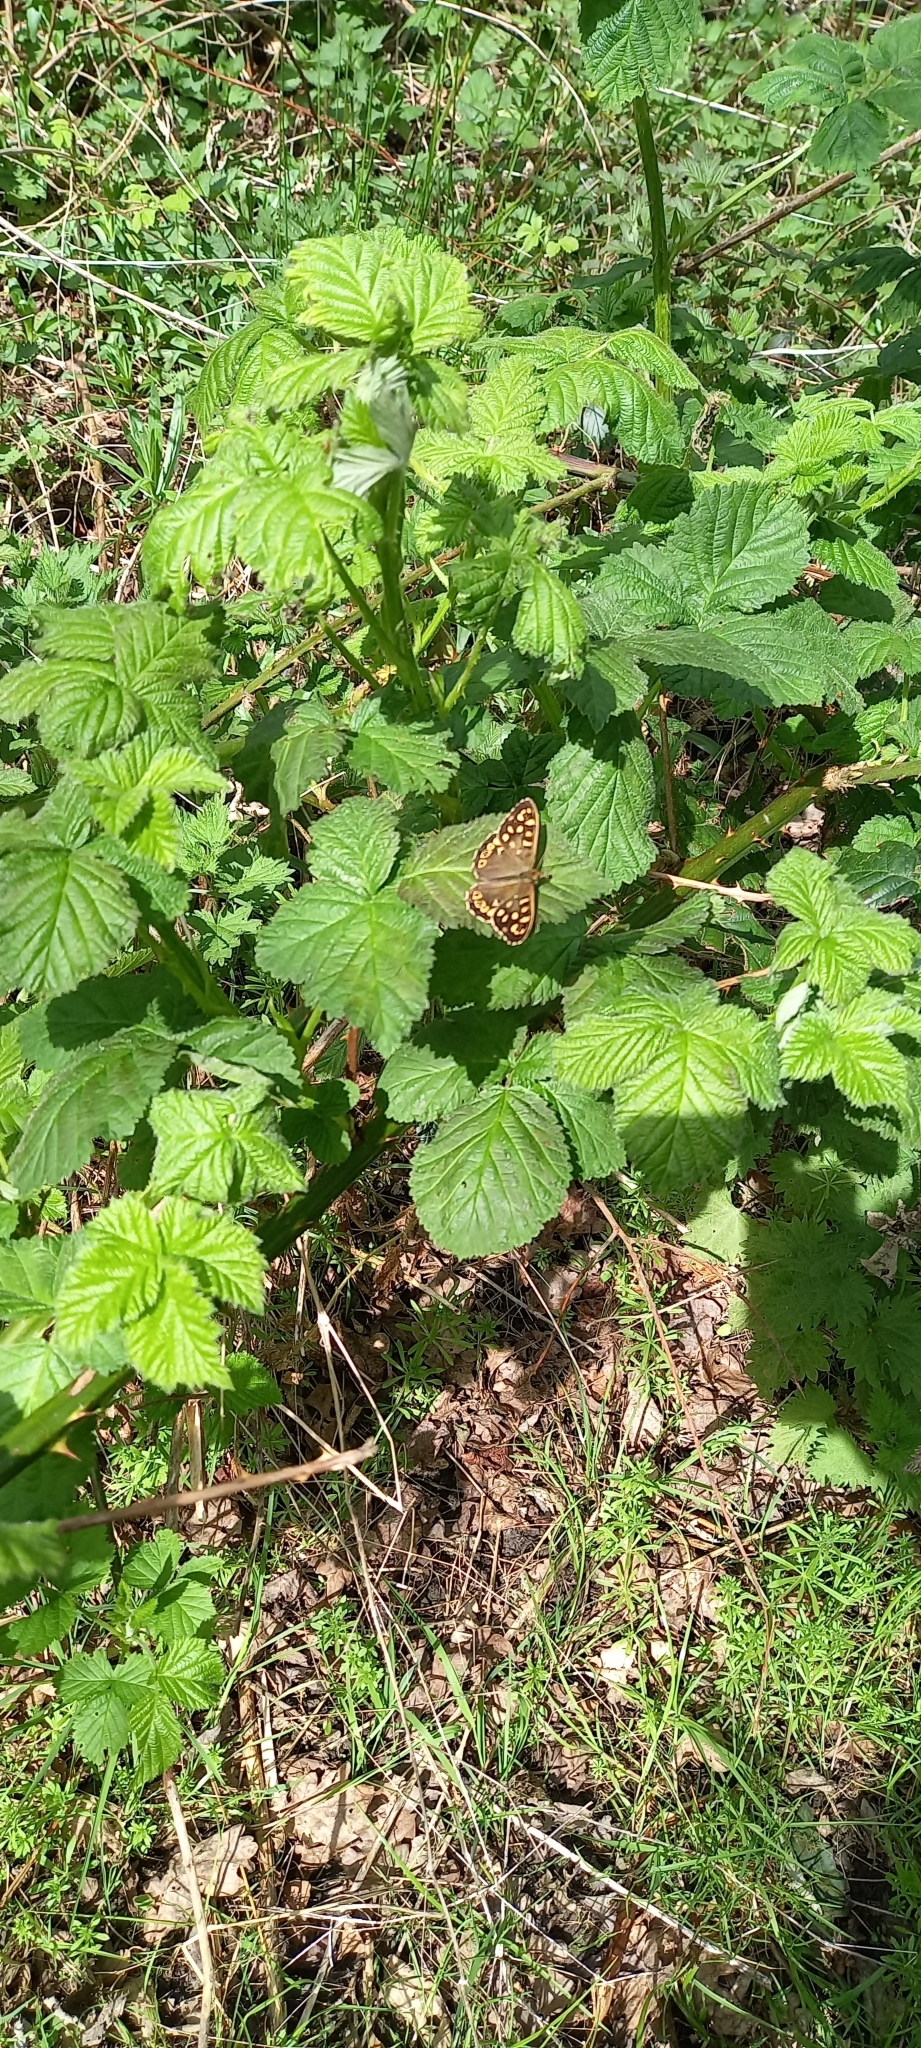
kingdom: Animalia
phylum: Arthropoda
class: Insecta
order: Lepidoptera
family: Nymphalidae
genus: Pararge
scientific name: Pararge aegeria
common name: Speckled wood
